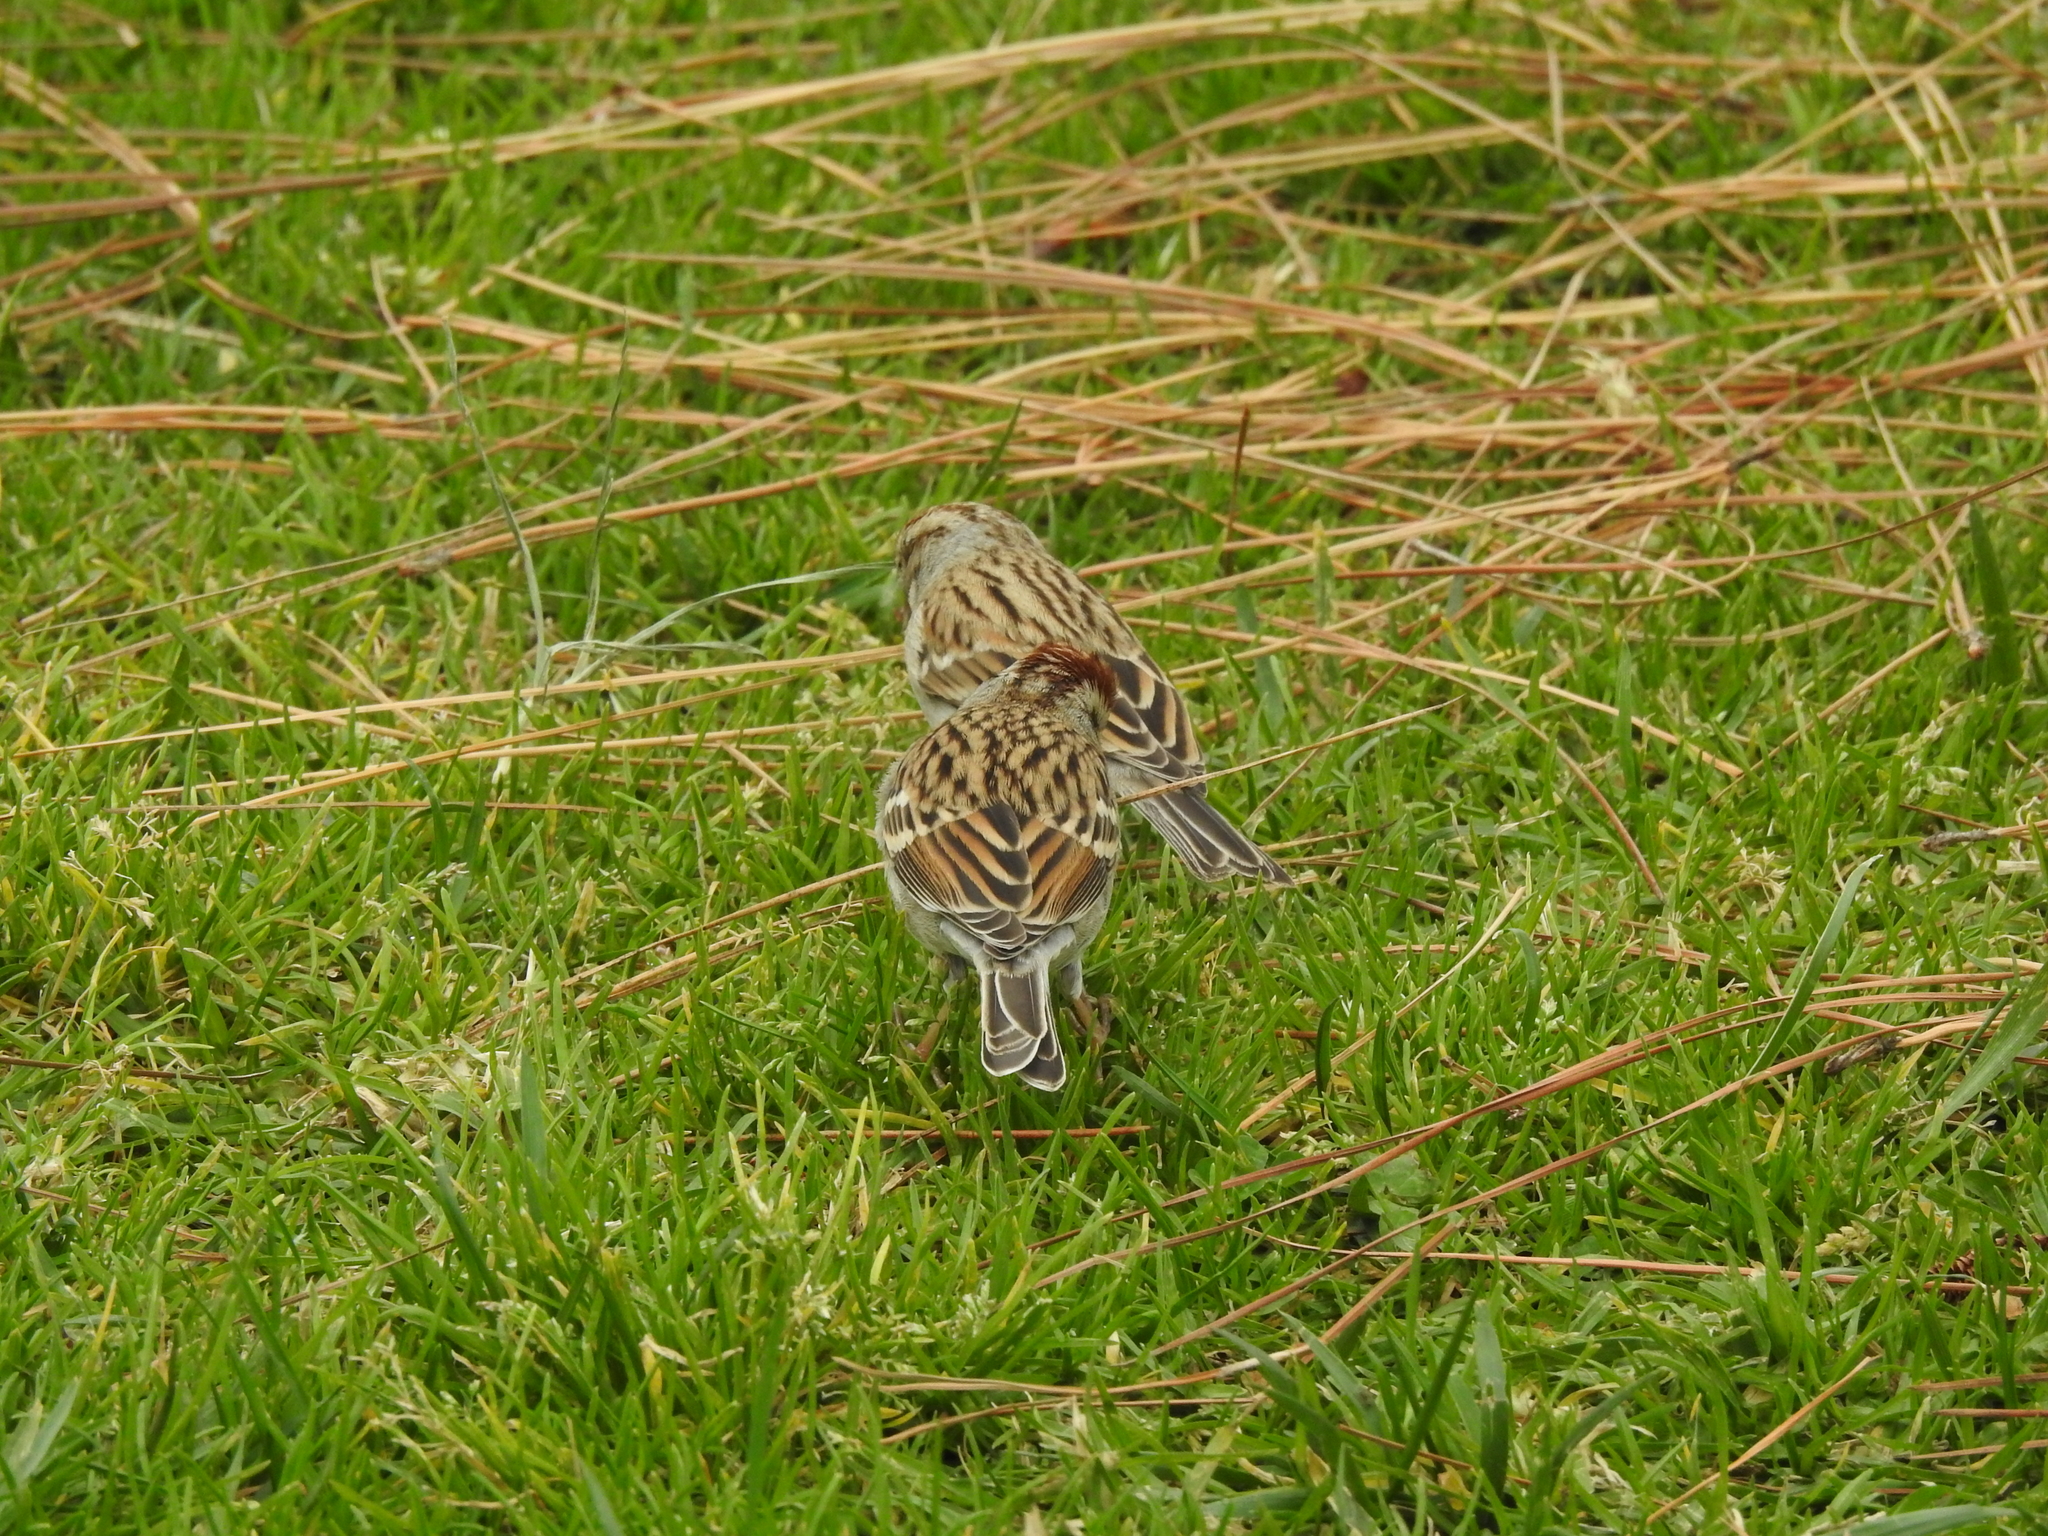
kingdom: Animalia
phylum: Chordata
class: Aves
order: Passeriformes
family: Passerellidae
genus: Spizella
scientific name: Spizella passerina
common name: Chipping sparrow
